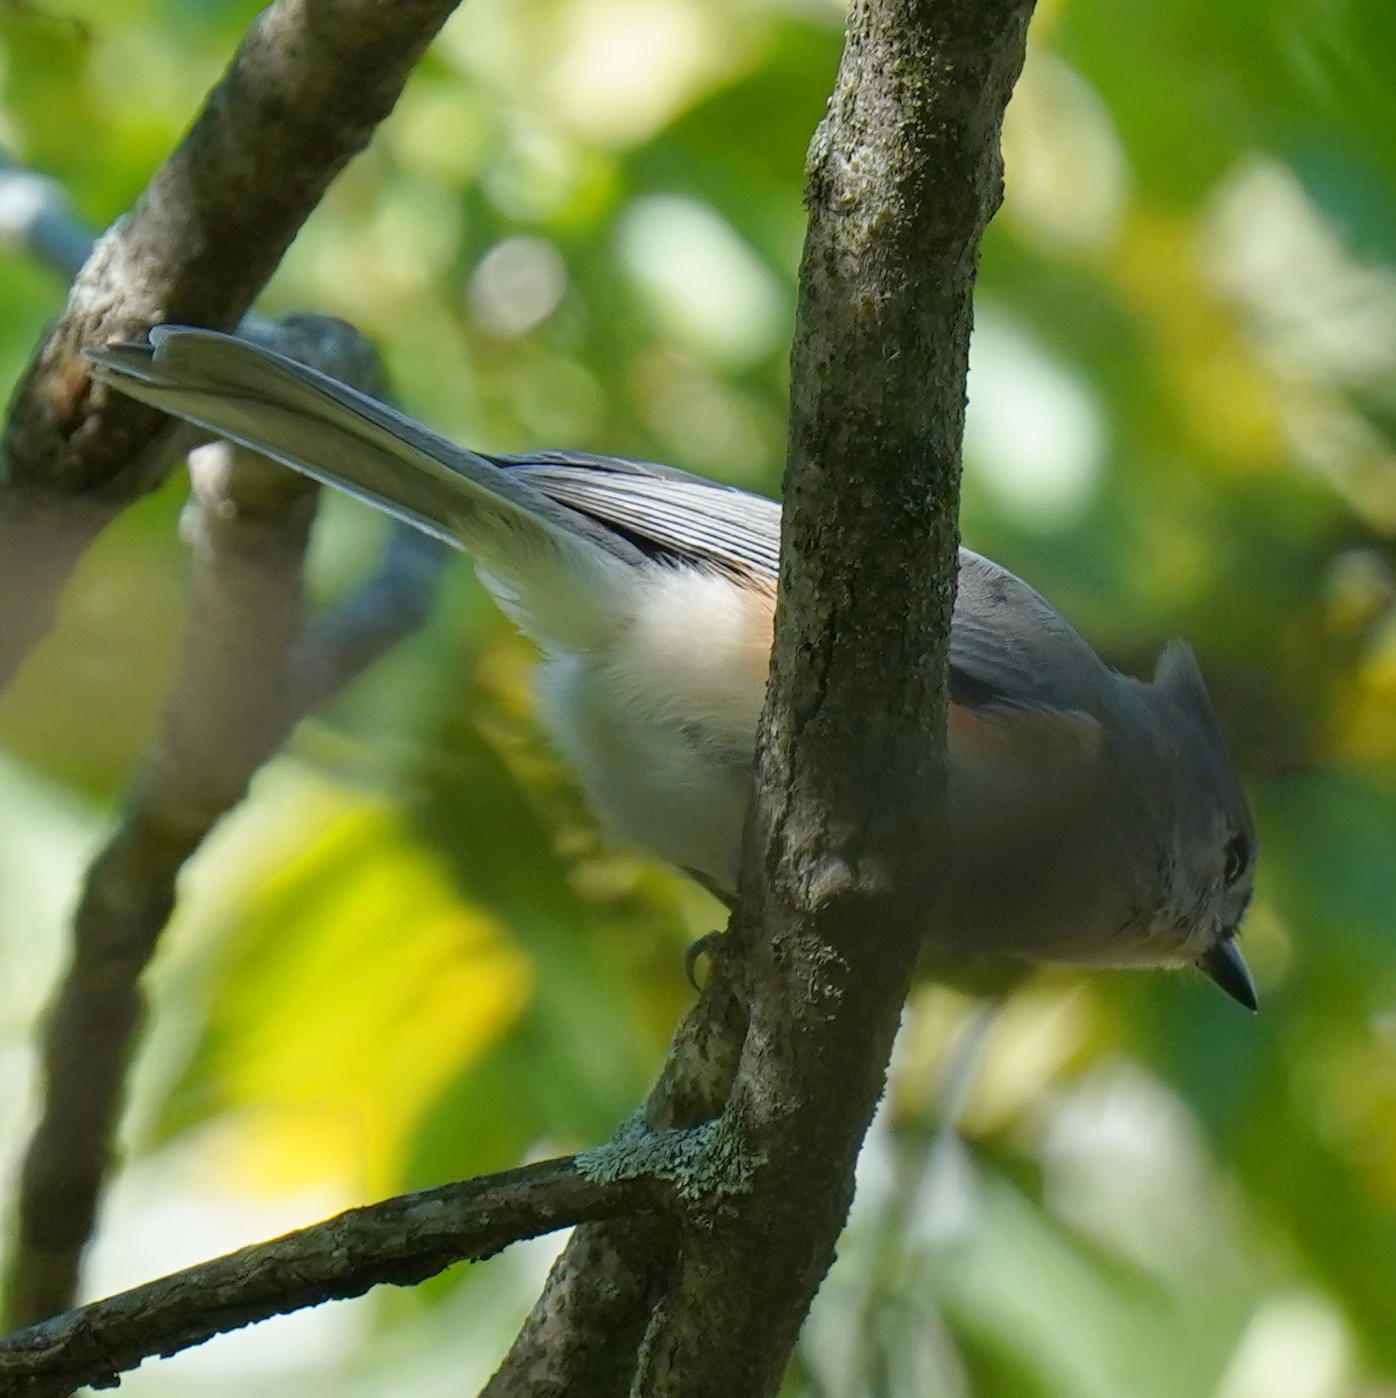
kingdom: Animalia
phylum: Chordata
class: Aves
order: Passeriformes
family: Paridae
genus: Baeolophus
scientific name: Baeolophus bicolor
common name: Tufted titmouse
